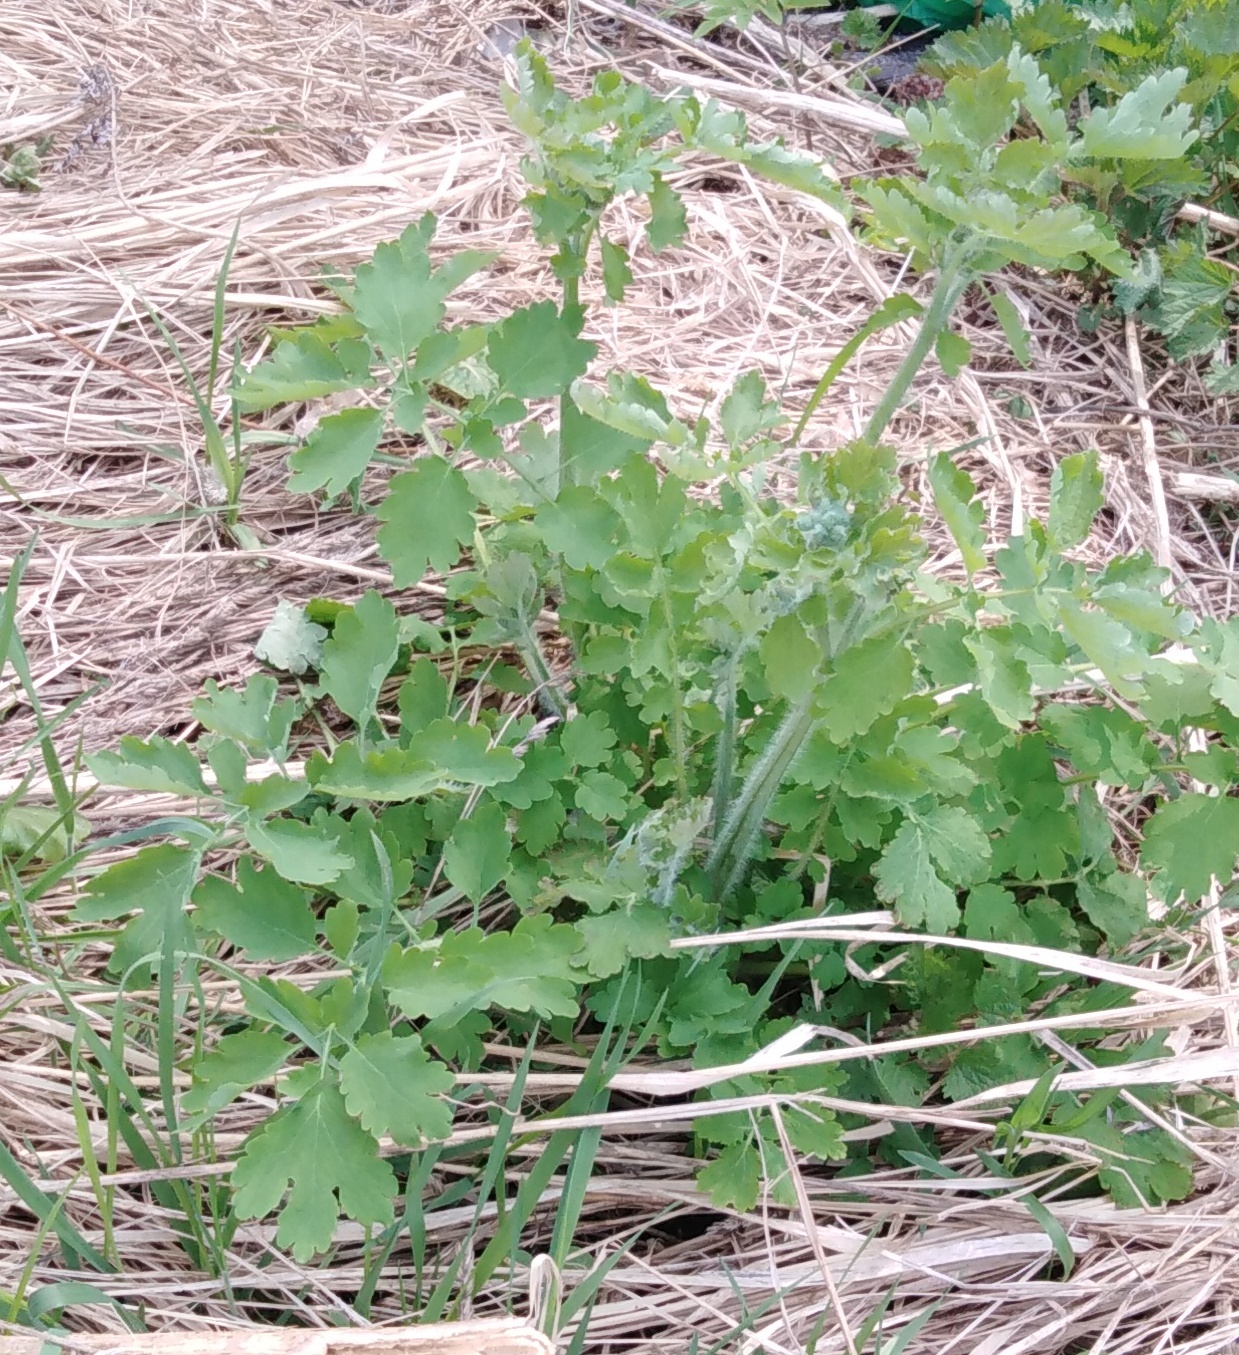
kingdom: Plantae
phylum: Tracheophyta
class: Magnoliopsida
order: Ranunculales
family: Papaveraceae
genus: Chelidonium
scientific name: Chelidonium majus
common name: Greater celandine
